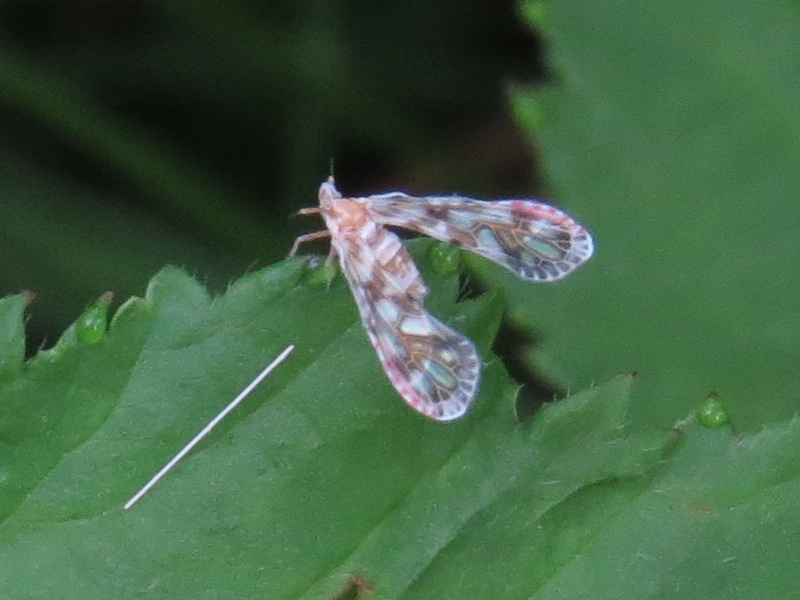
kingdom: Animalia
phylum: Arthropoda
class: Insecta
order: Hemiptera
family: Derbidae
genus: Anotia
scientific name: Anotia kirkaldyi
